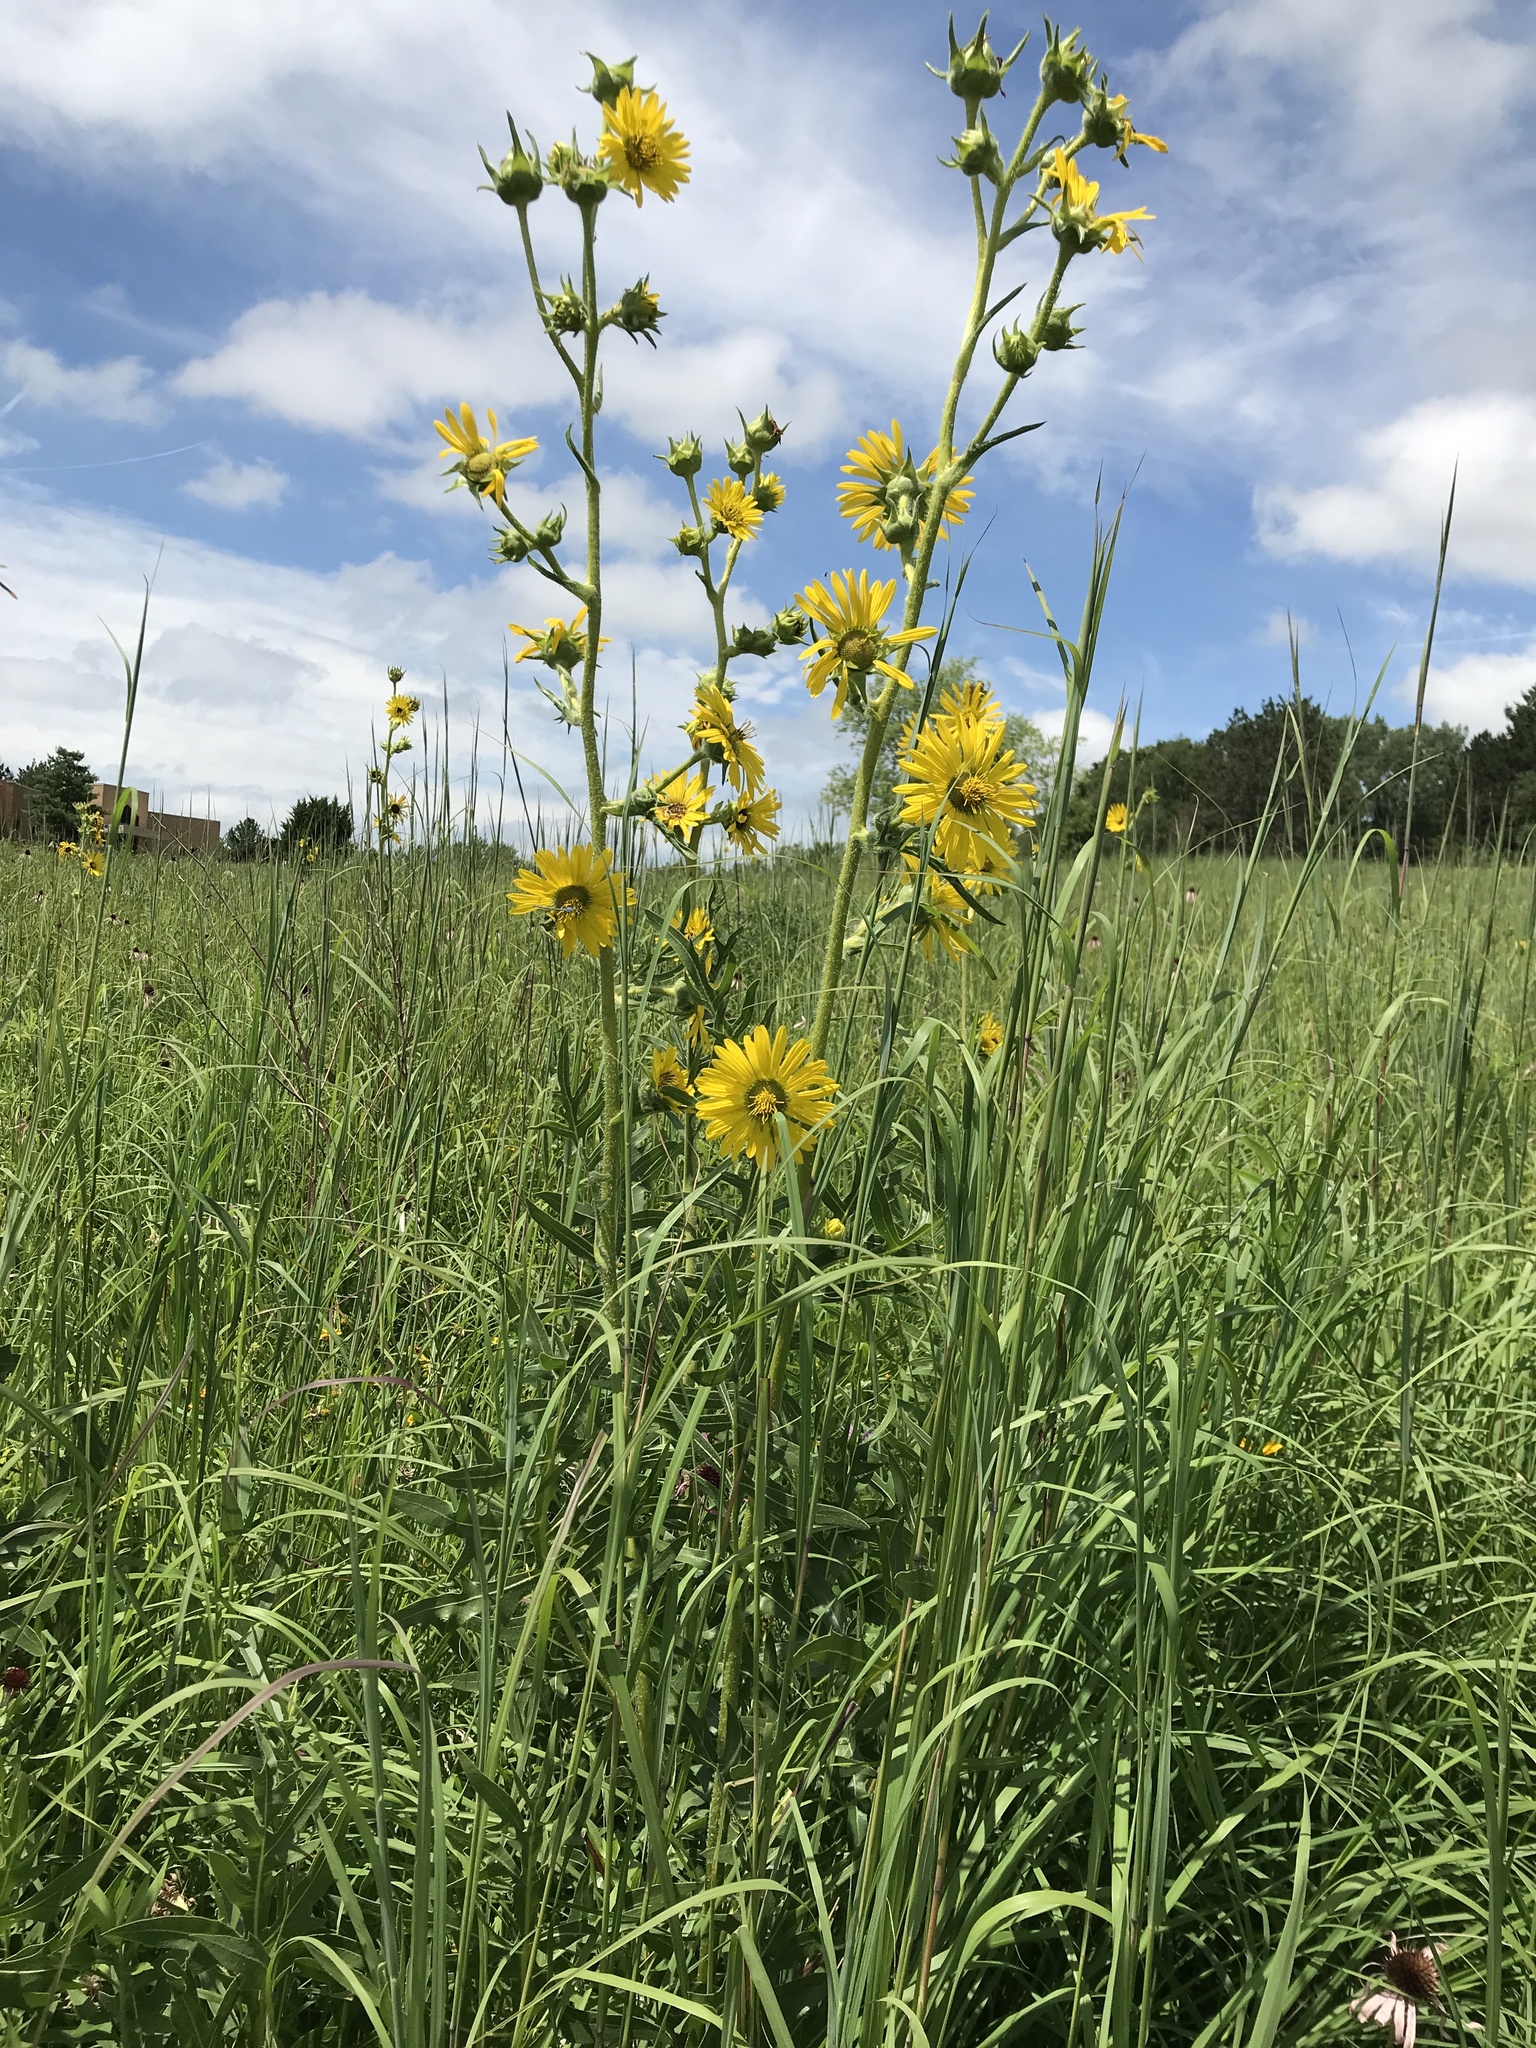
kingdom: Plantae
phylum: Tracheophyta
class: Magnoliopsida
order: Asterales
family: Asteraceae
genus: Silphium
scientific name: Silphium laciniatum
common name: Polarplant
